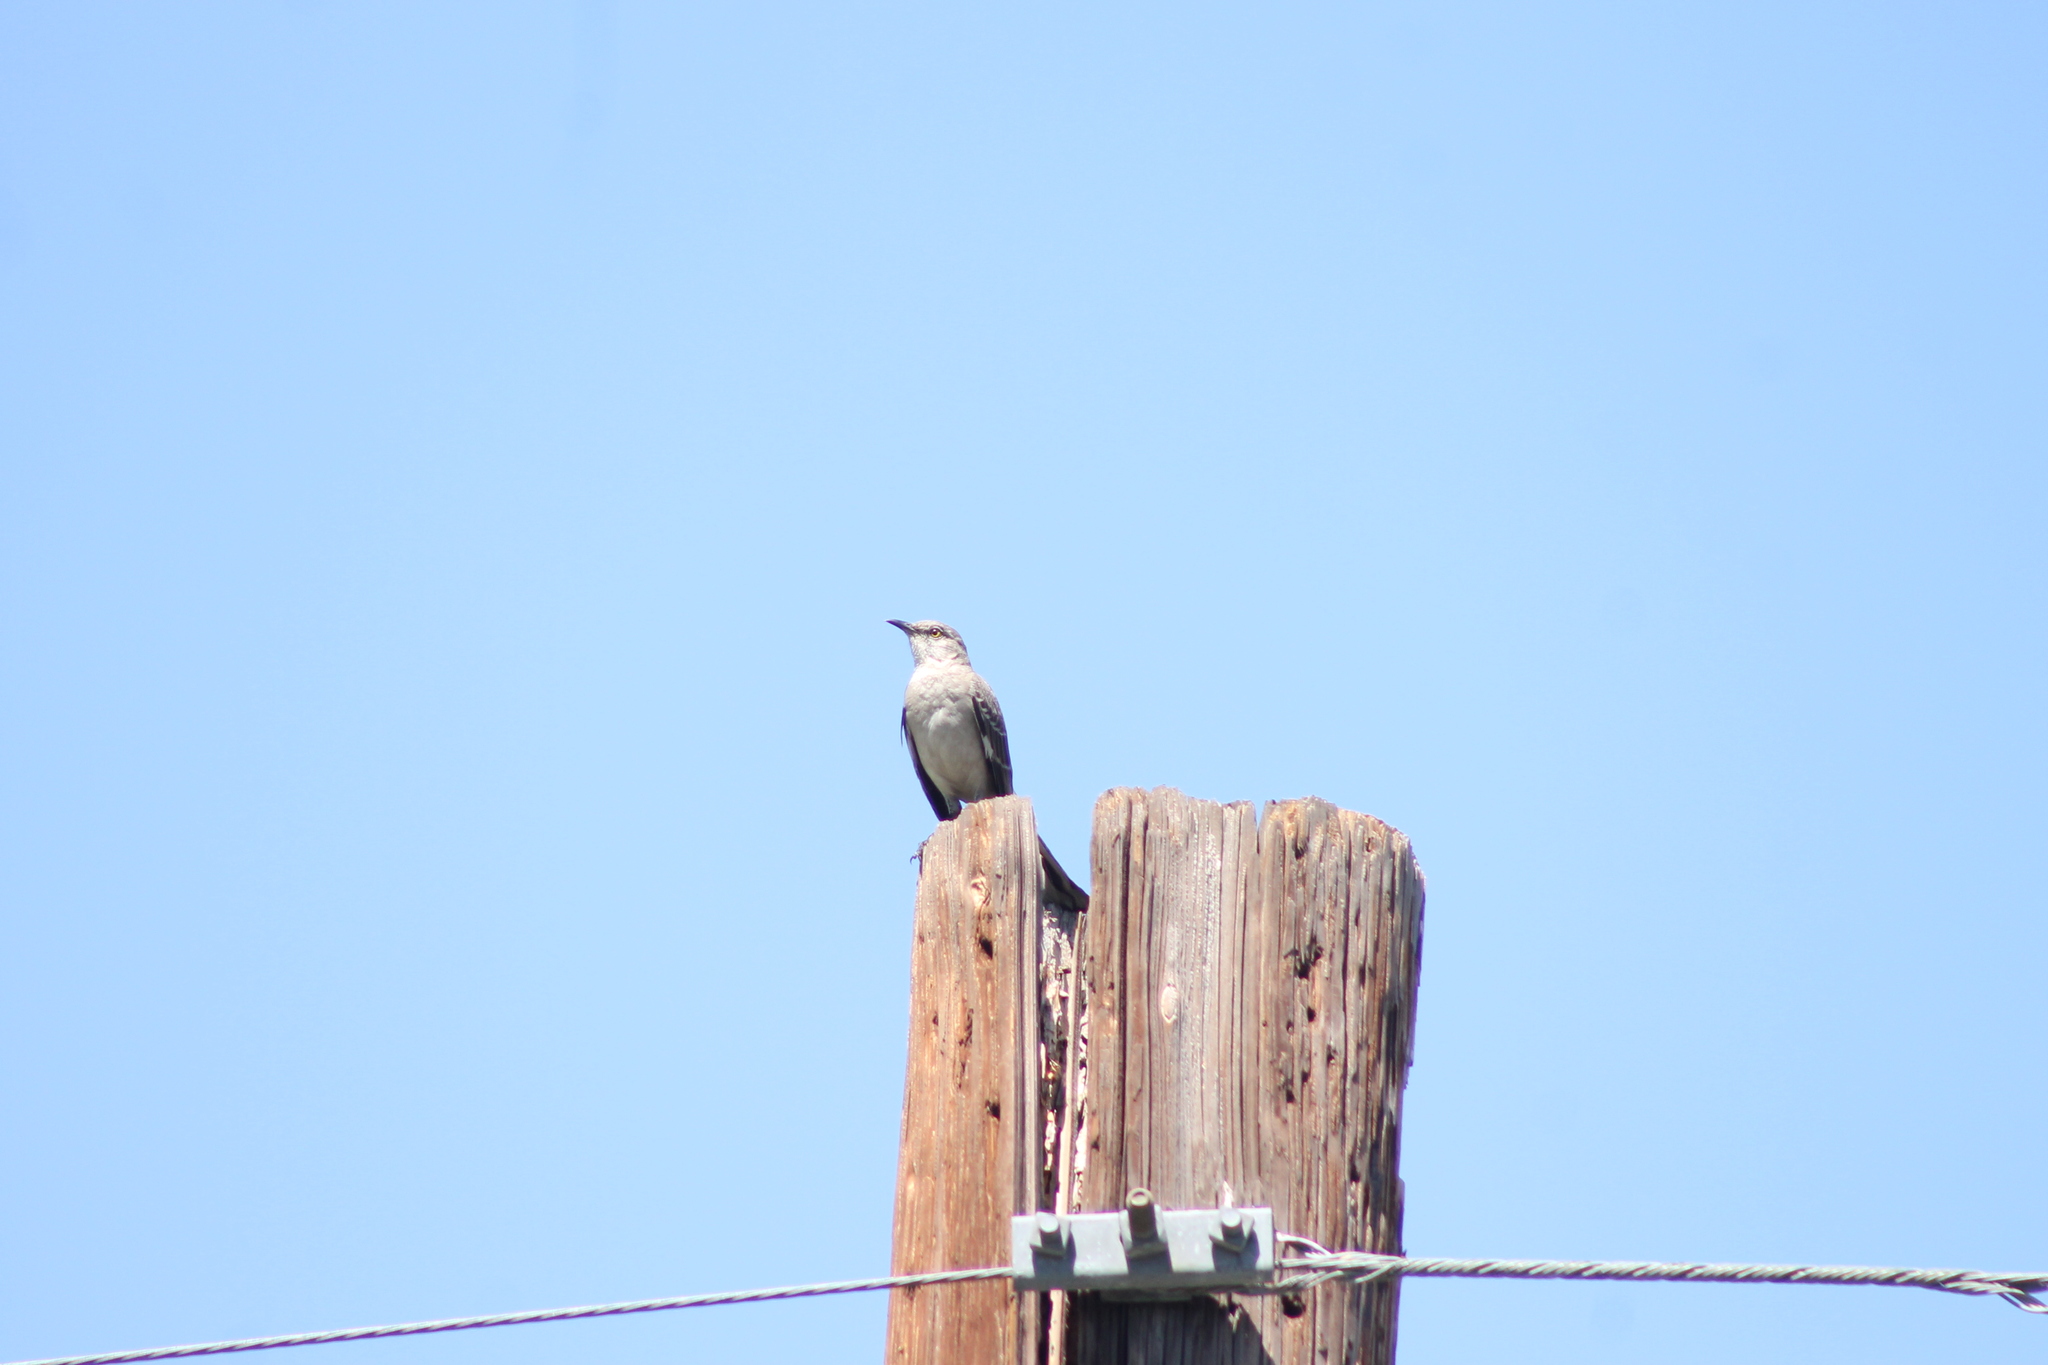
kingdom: Animalia
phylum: Chordata
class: Aves
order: Passeriformes
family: Mimidae
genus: Mimus
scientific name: Mimus polyglottos
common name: Northern mockingbird
